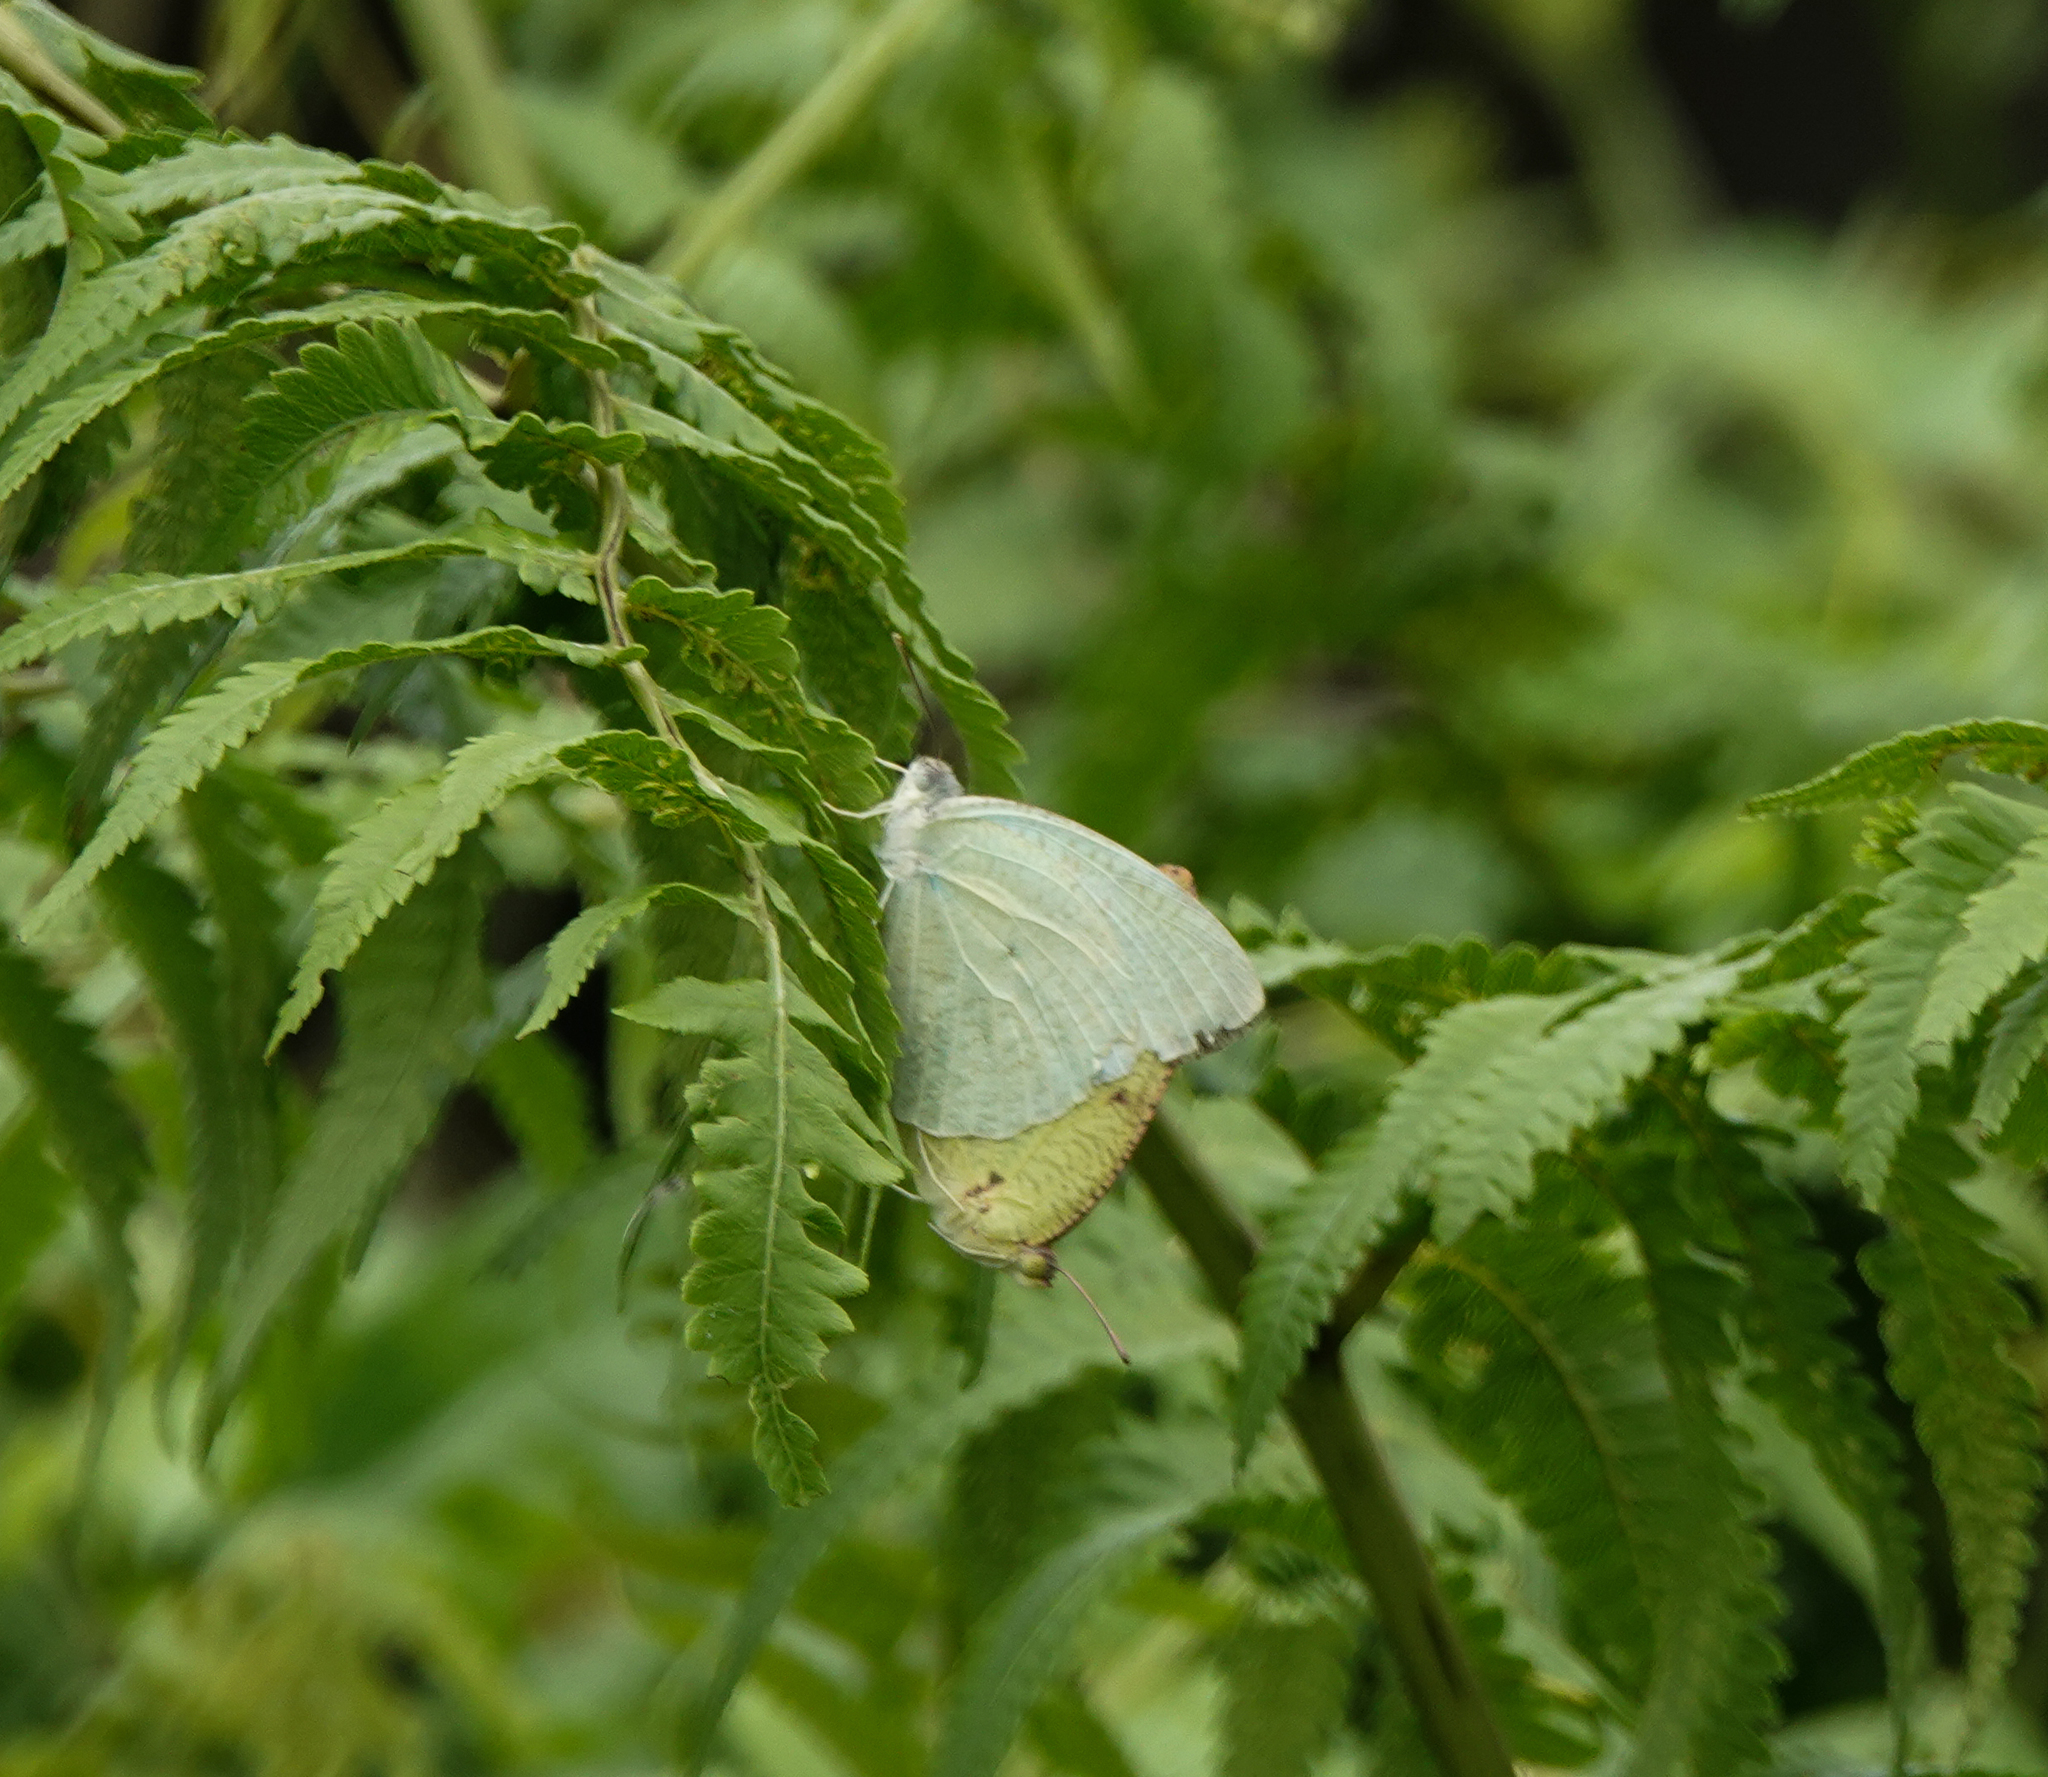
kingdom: Animalia
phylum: Arthropoda
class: Insecta
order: Lepidoptera
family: Pieridae
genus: Catopsilia
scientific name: Catopsilia pyranthe
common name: Mottled emigrant
